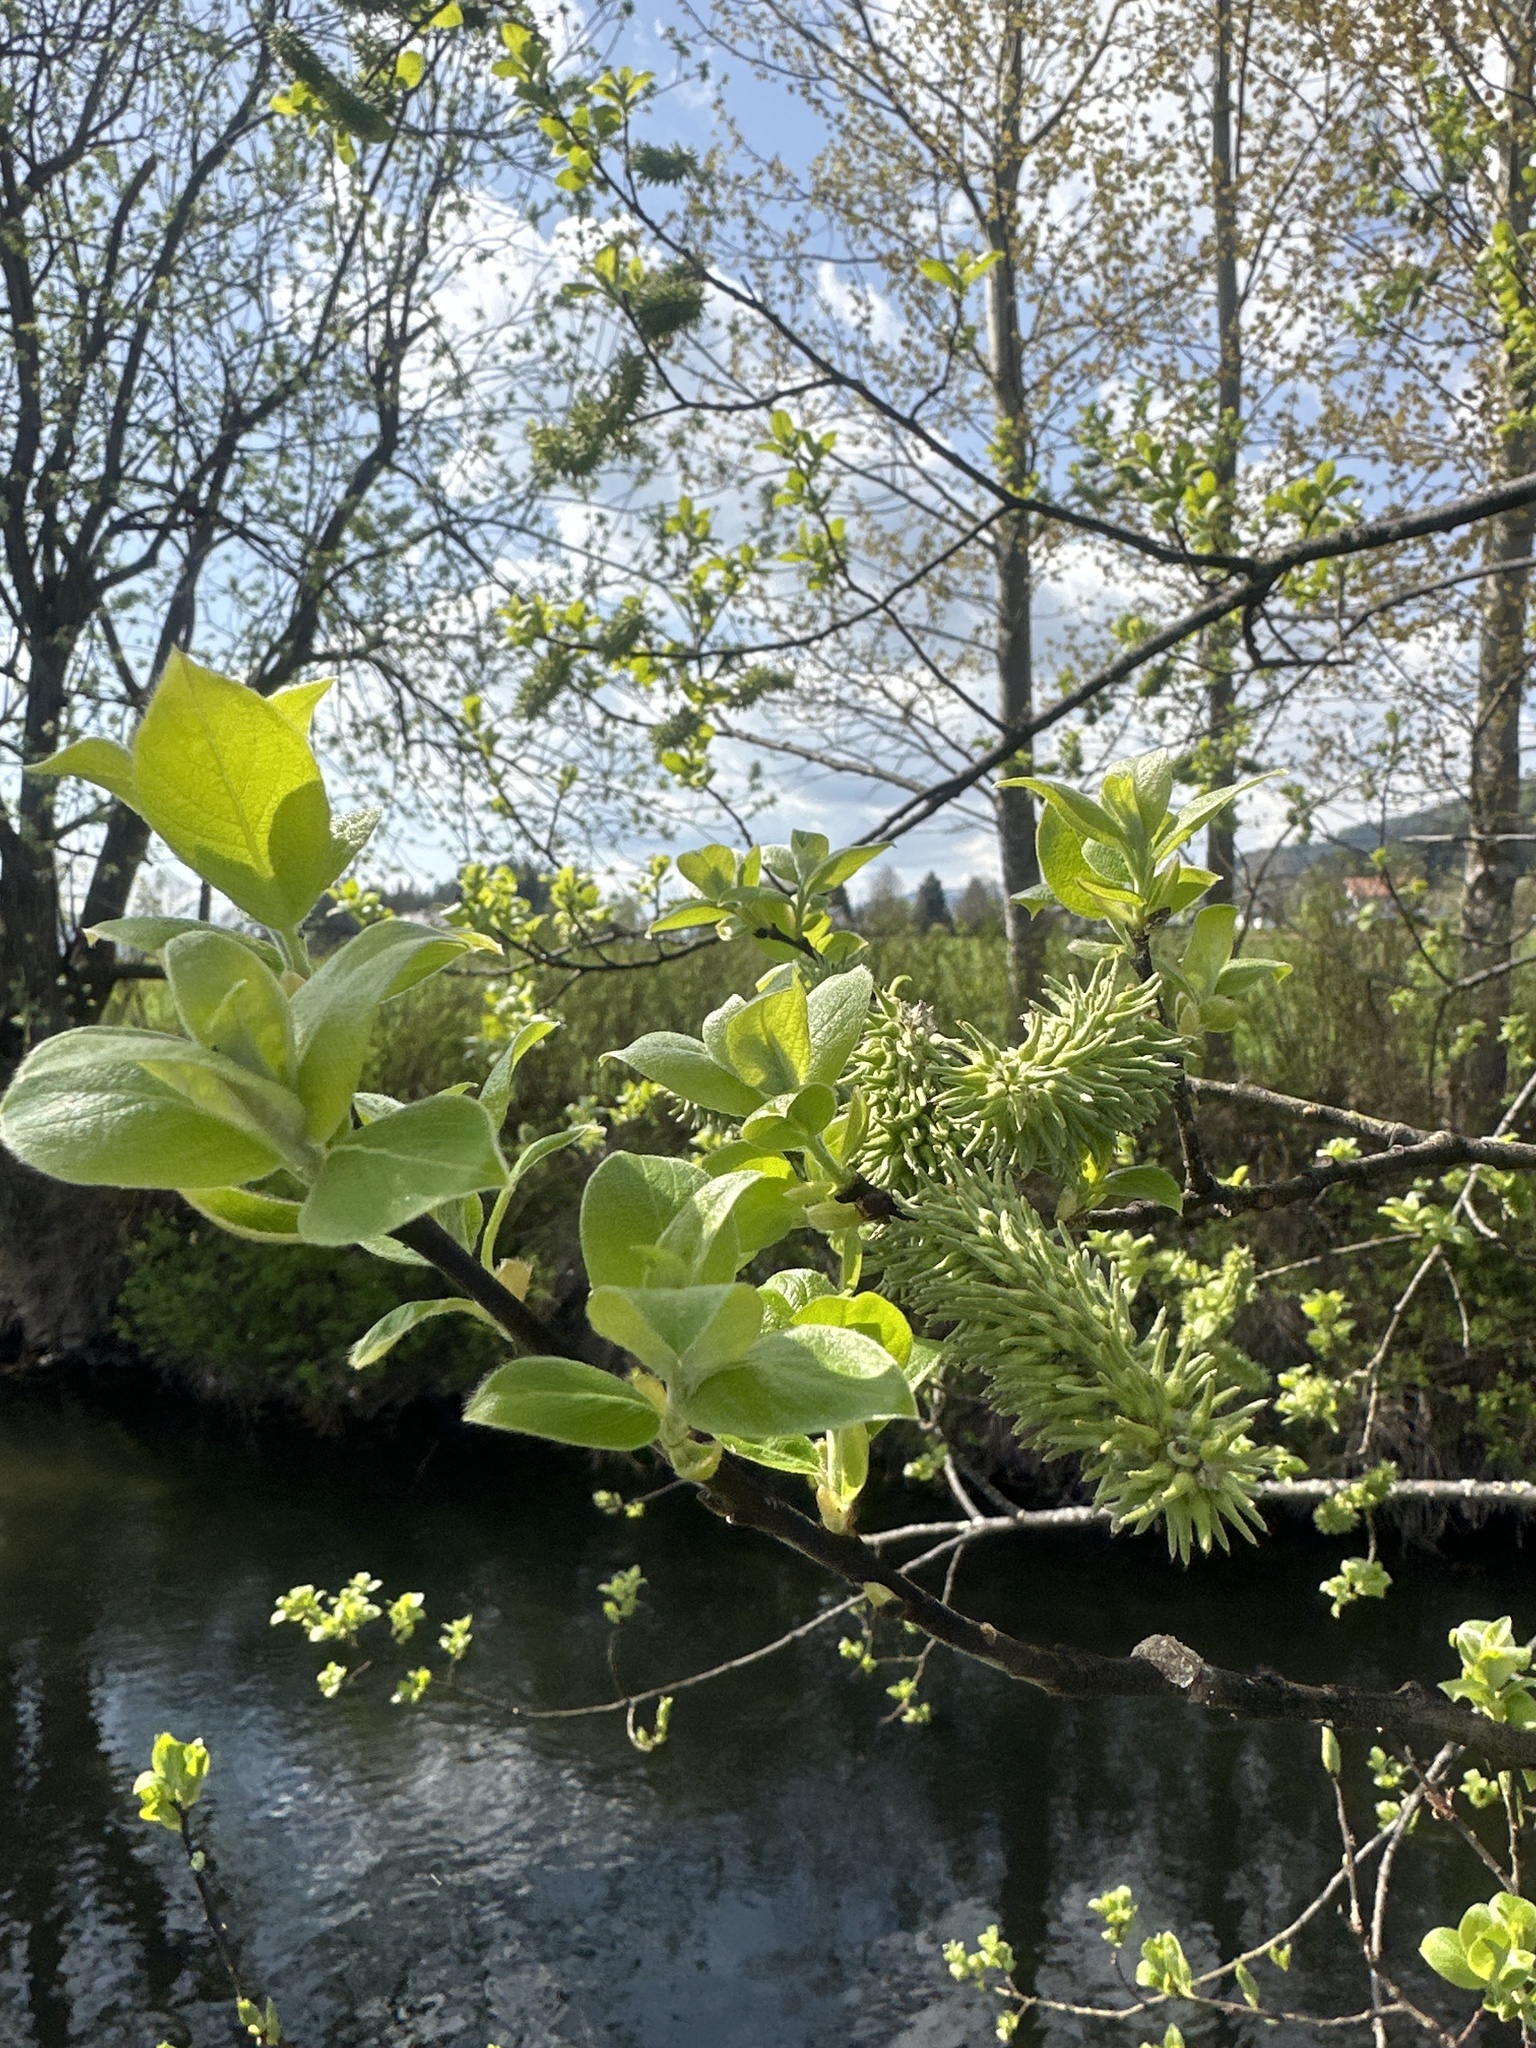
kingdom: Plantae
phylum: Tracheophyta
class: Magnoliopsida
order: Malpighiales
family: Salicaceae
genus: Salix
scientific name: Salix caprea
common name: Goat willow
